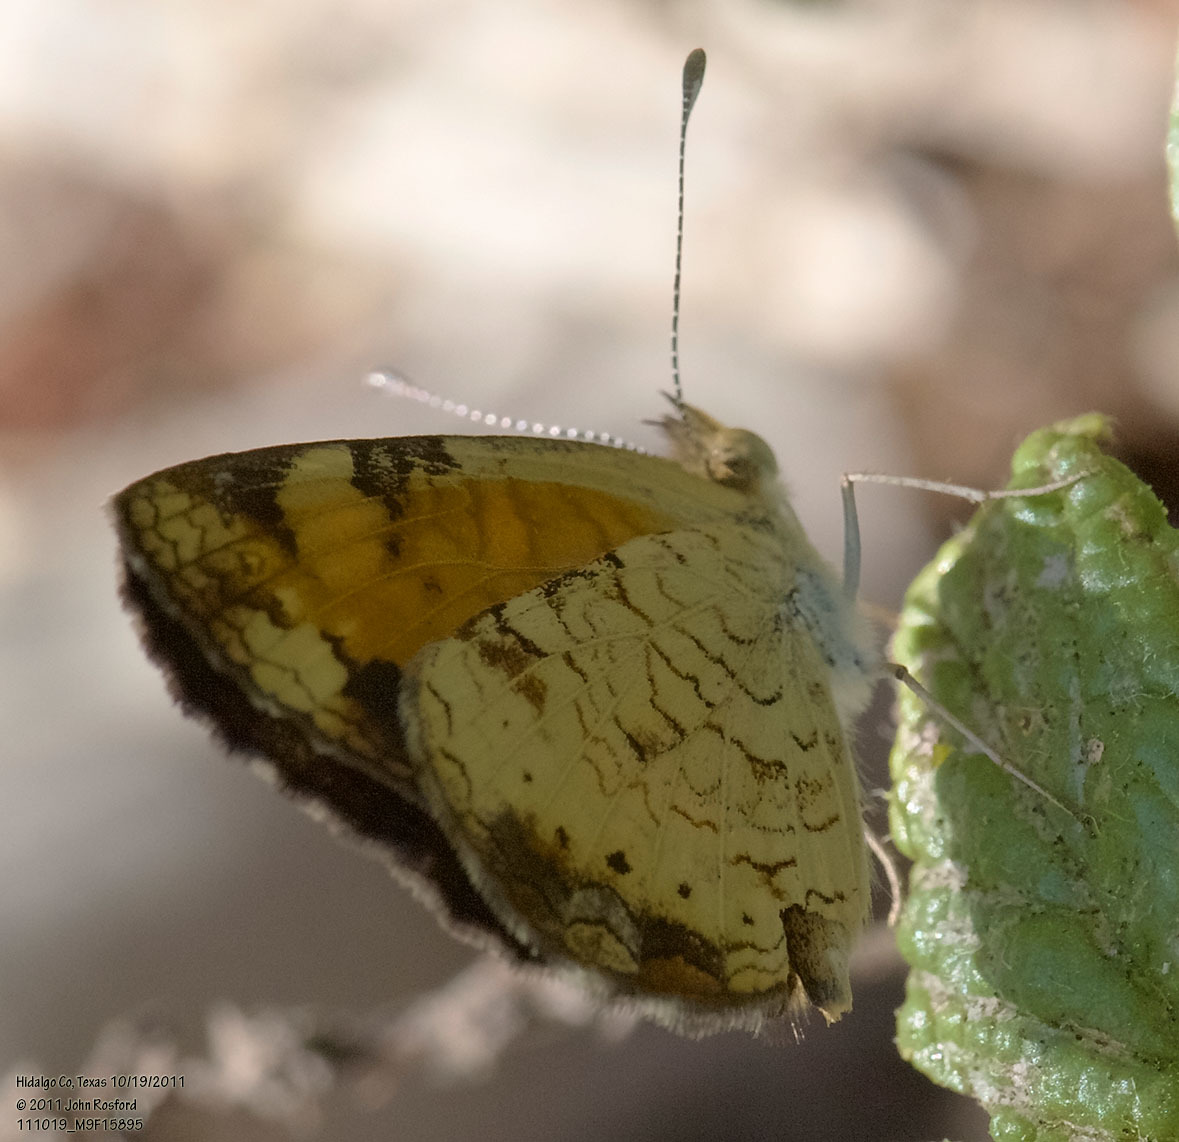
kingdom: Animalia
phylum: Arthropoda
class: Insecta
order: Lepidoptera
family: Nymphalidae
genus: Phyciodes
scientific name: Phyciodes tharos
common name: Pearl crescent
